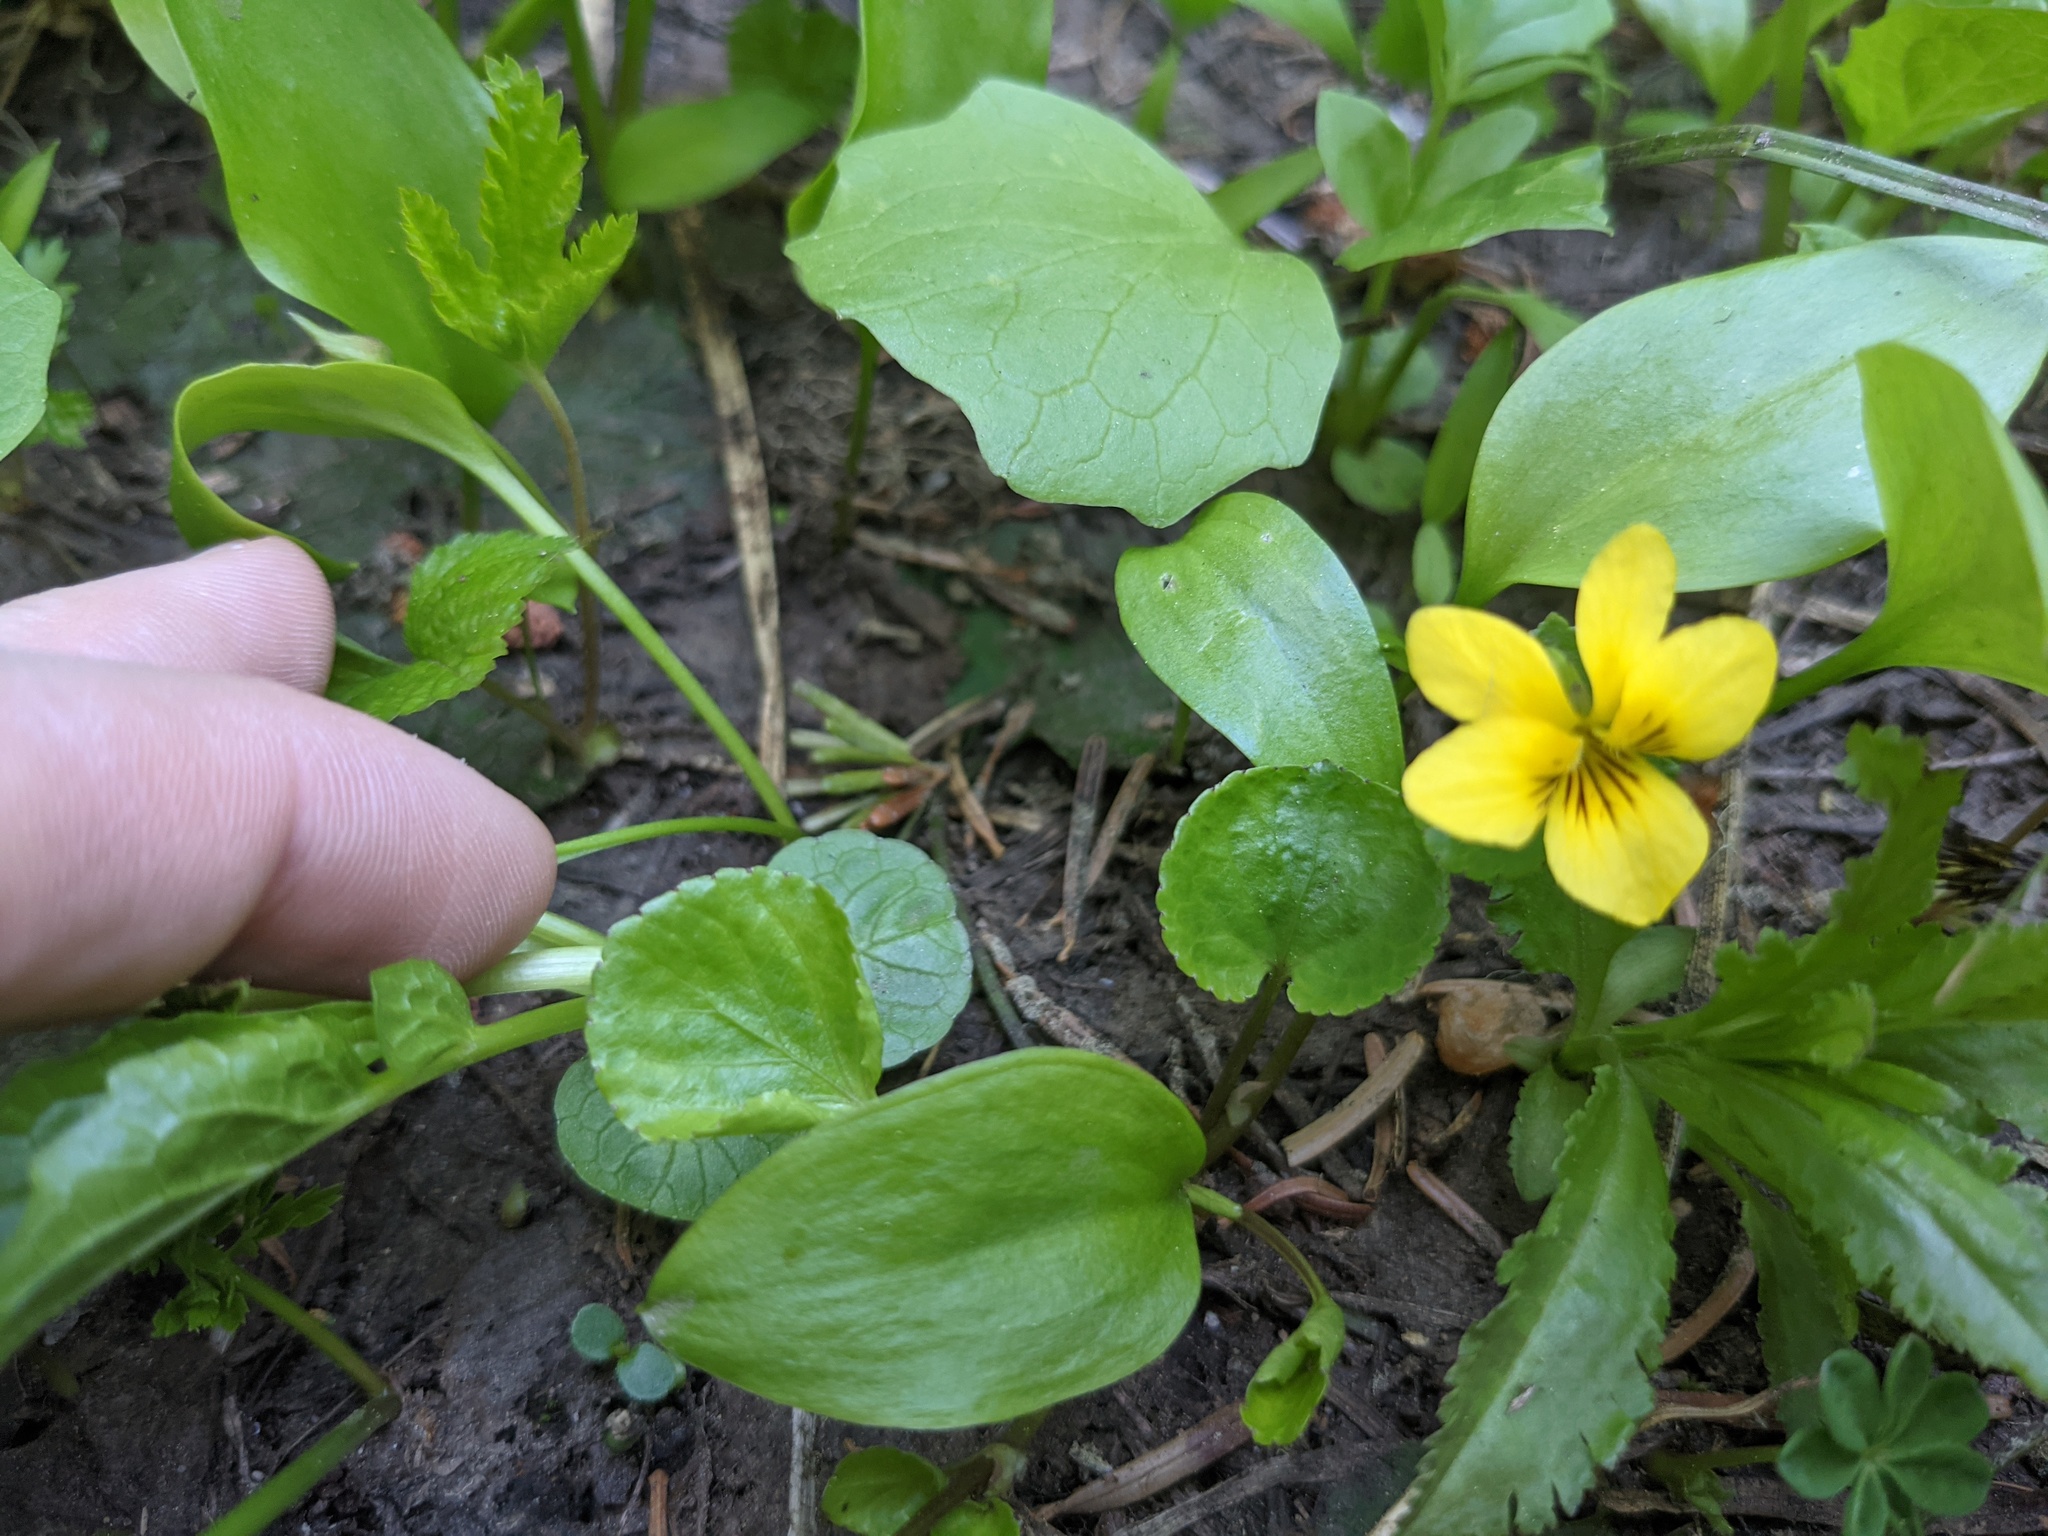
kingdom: Plantae
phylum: Tracheophyta
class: Magnoliopsida
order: Malpighiales
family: Violaceae
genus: Viola
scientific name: Viola orbiculata
